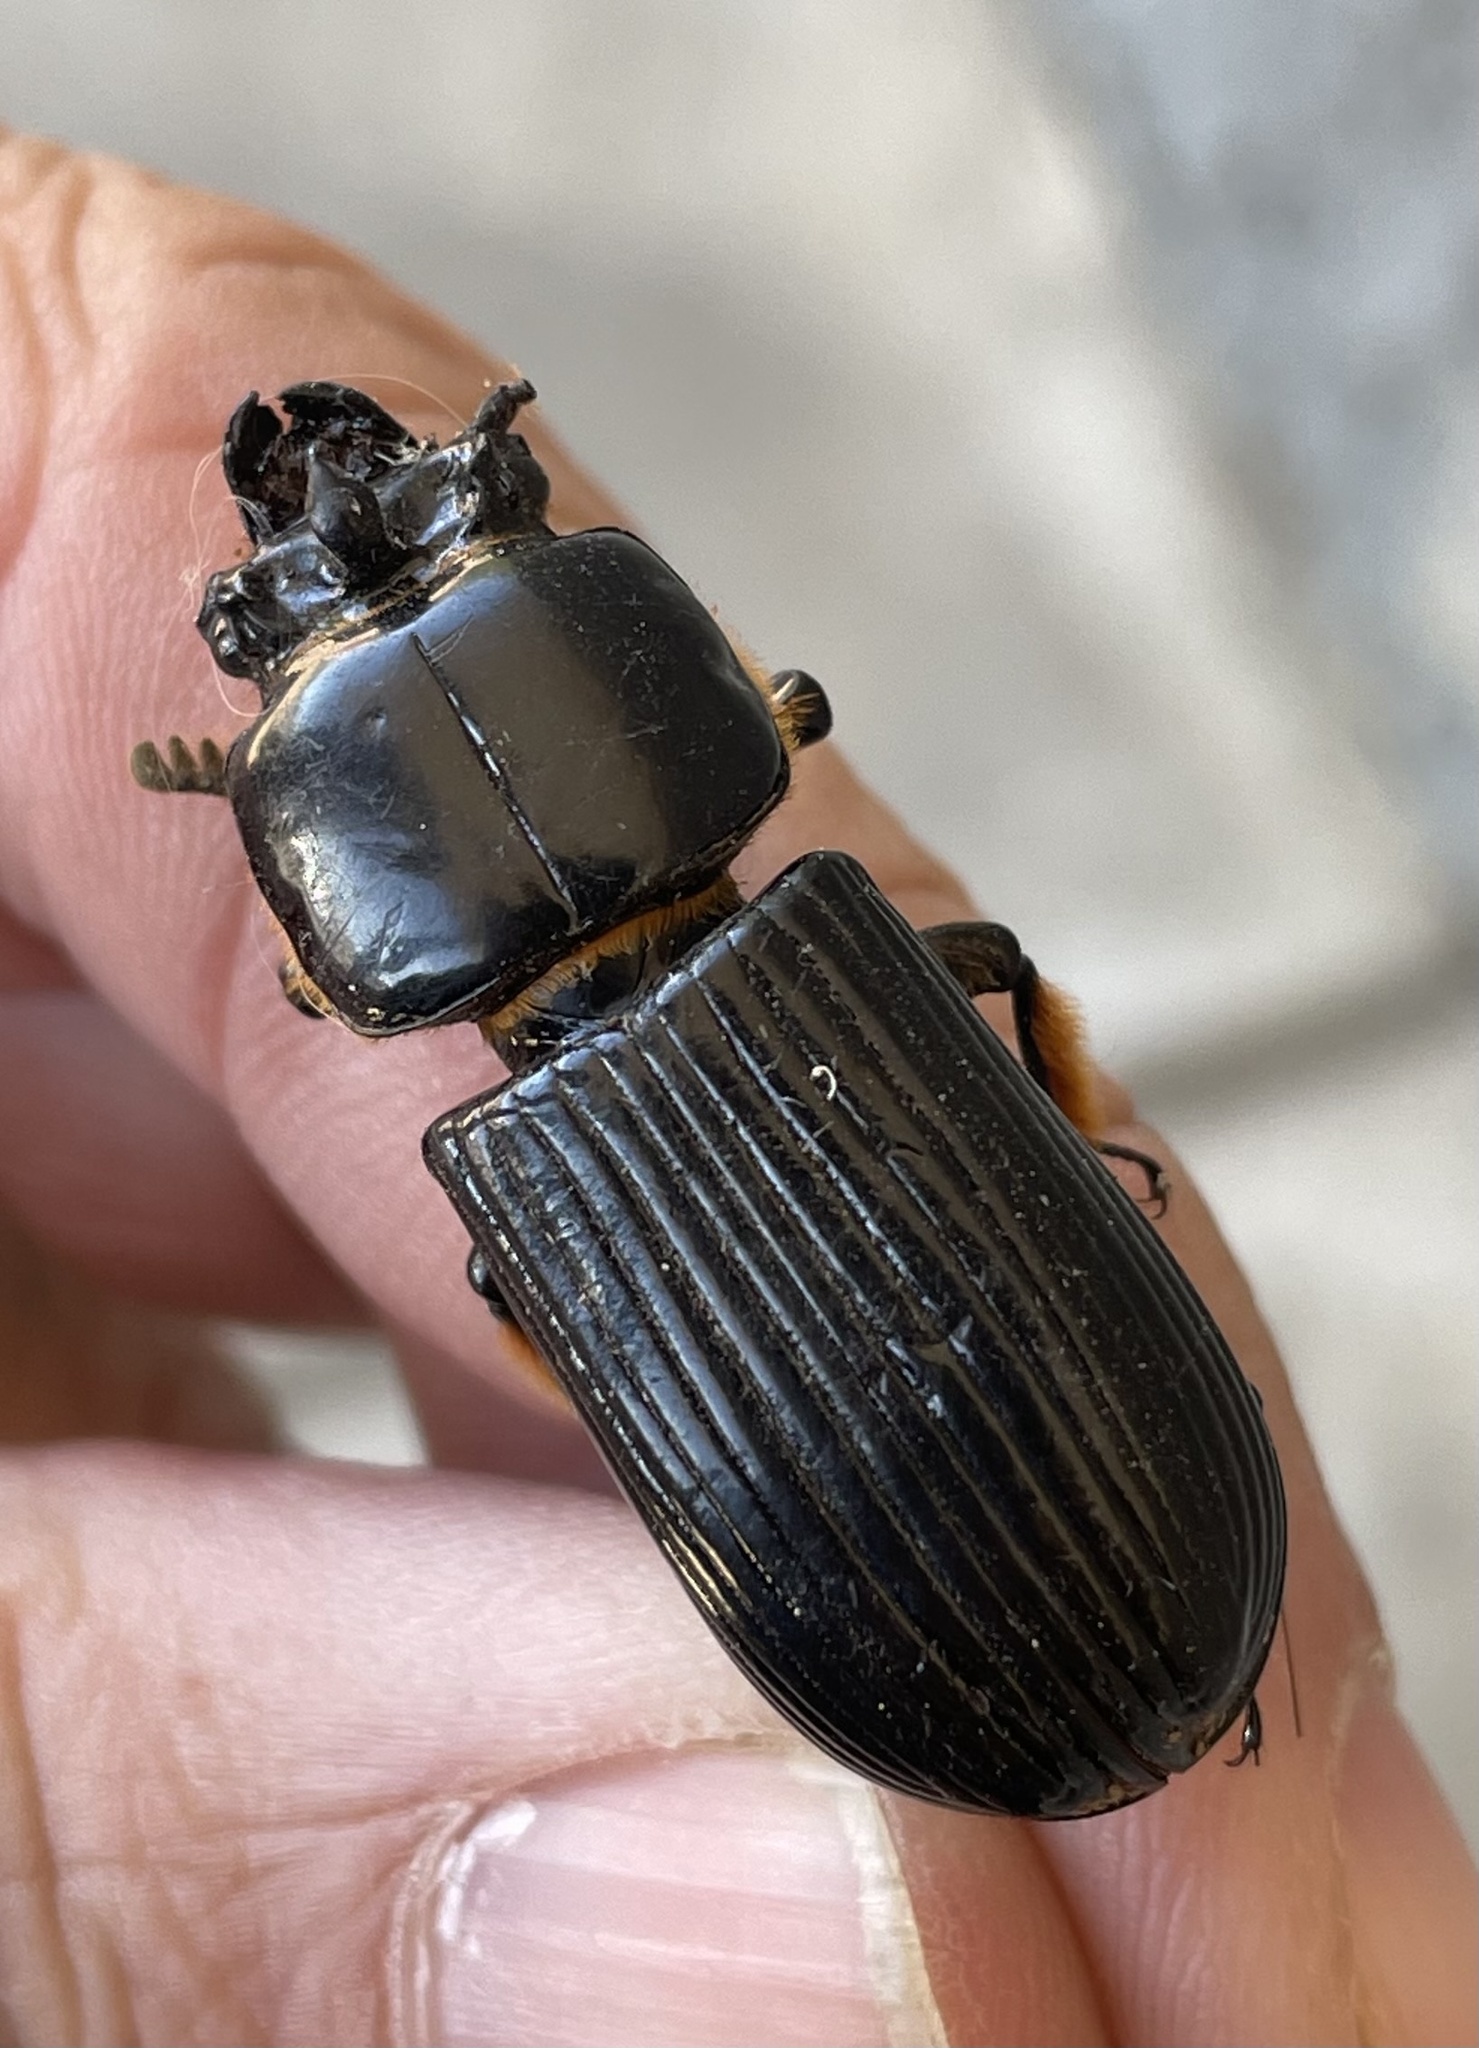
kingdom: Animalia
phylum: Arthropoda
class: Insecta
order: Coleoptera
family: Passalidae
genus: Odontotaenius
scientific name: Odontotaenius disjunctus
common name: Patent leather beetle
